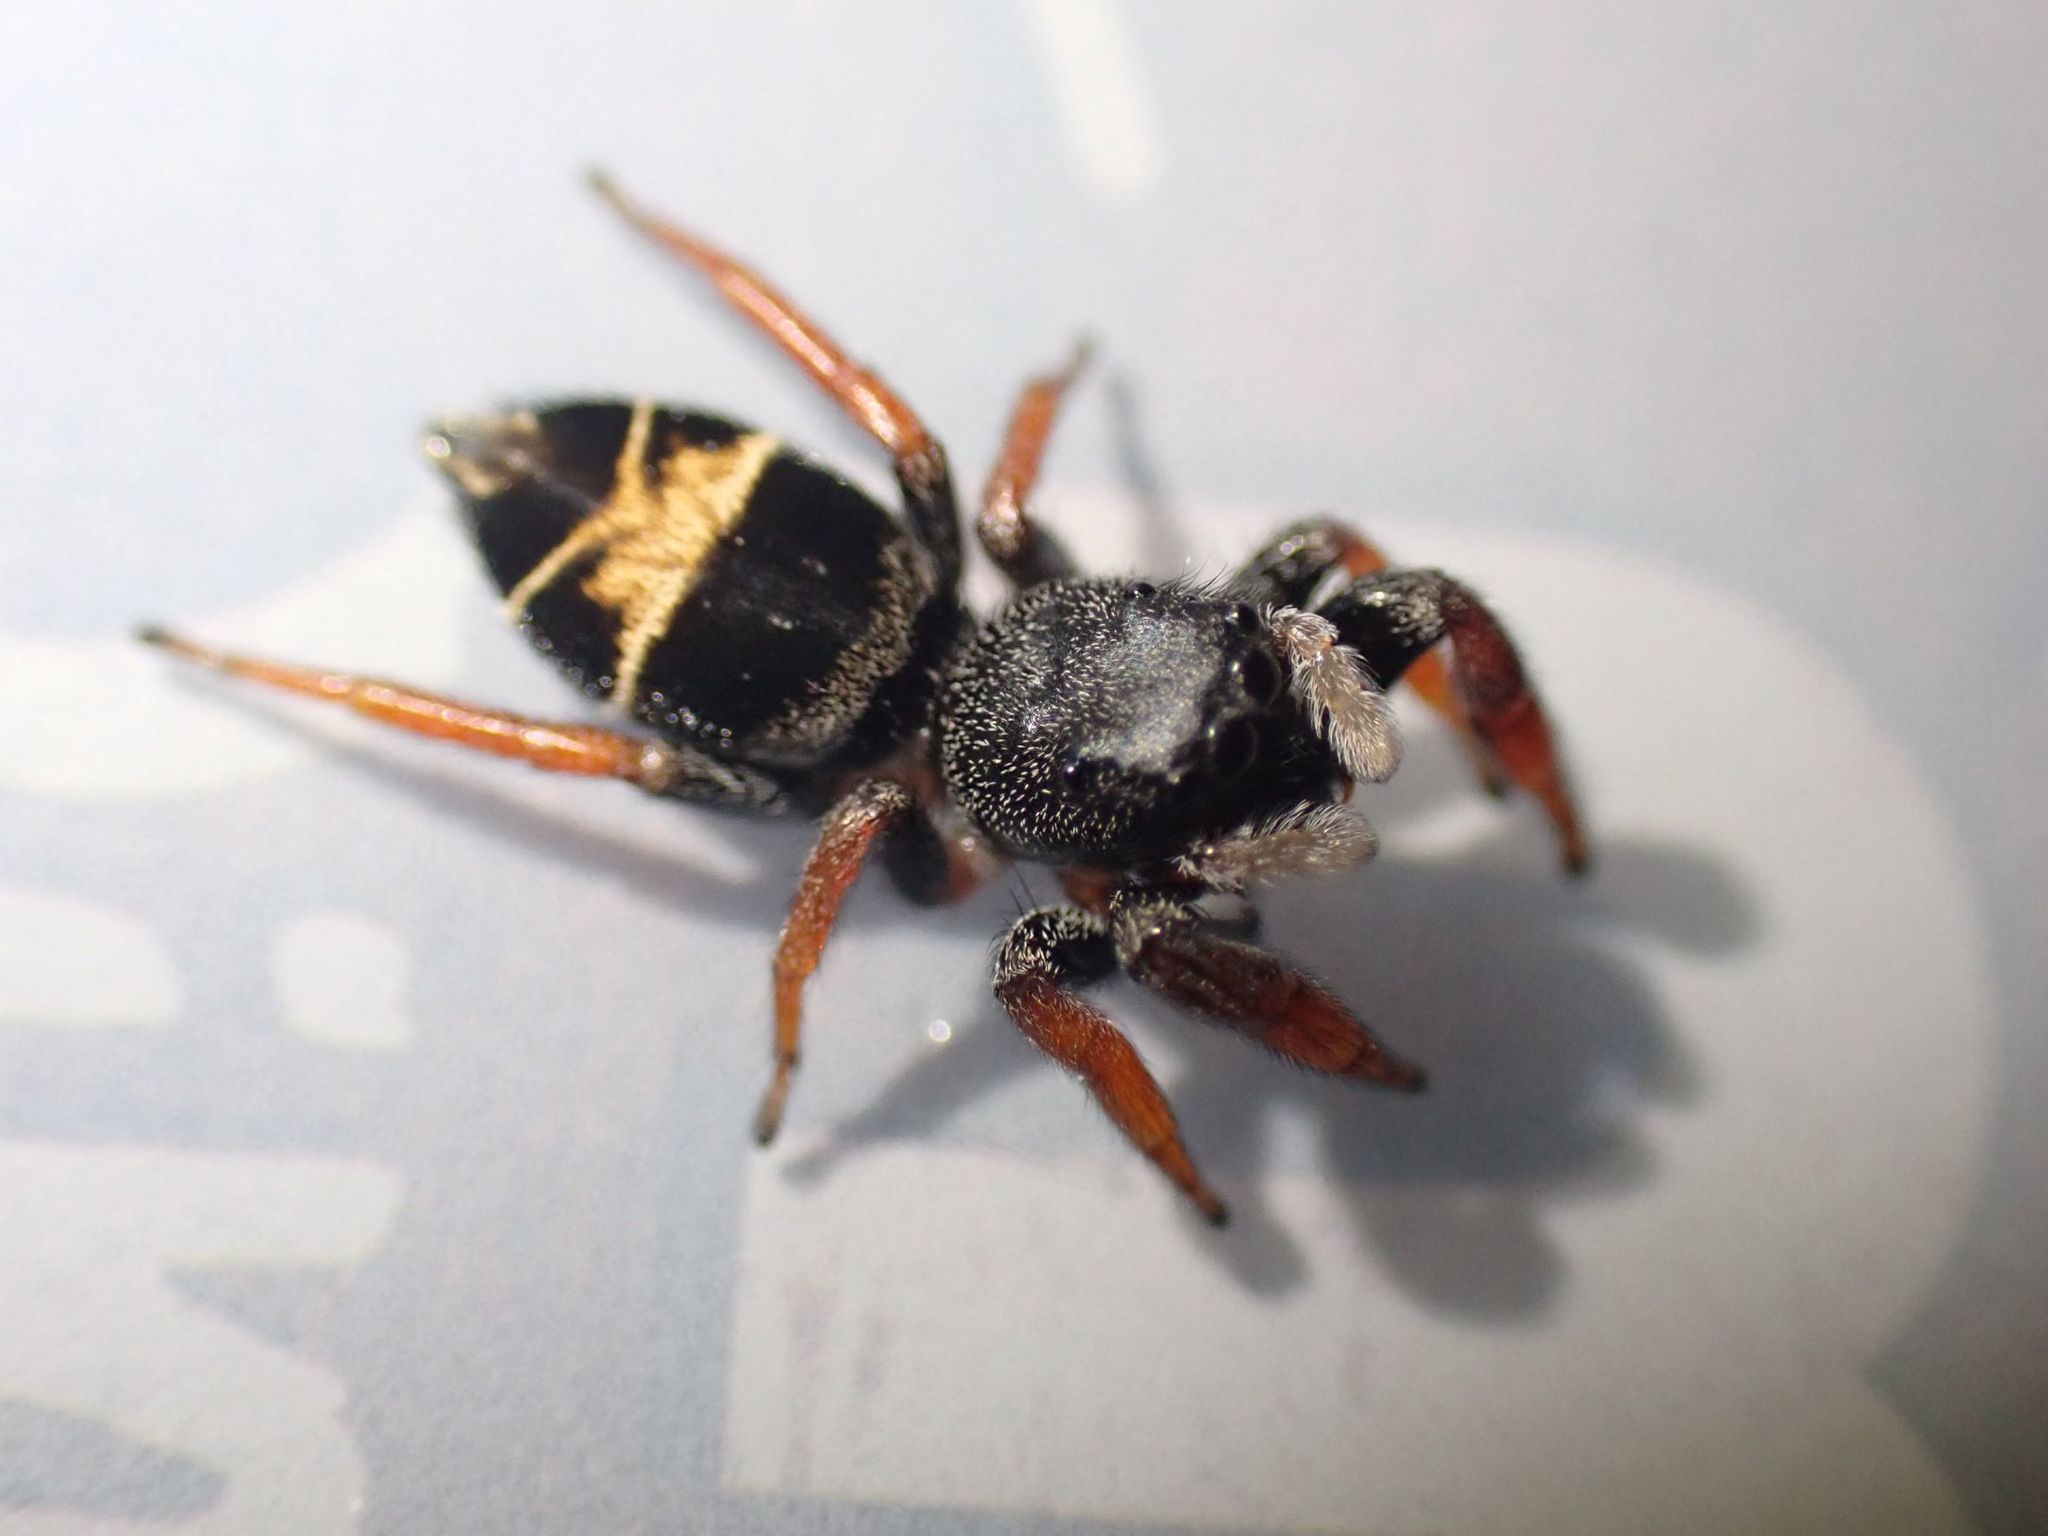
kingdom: Animalia
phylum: Arthropoda
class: Arachnida
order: Araneae
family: Salticidae
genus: Apricia
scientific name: Apricia jovialis
